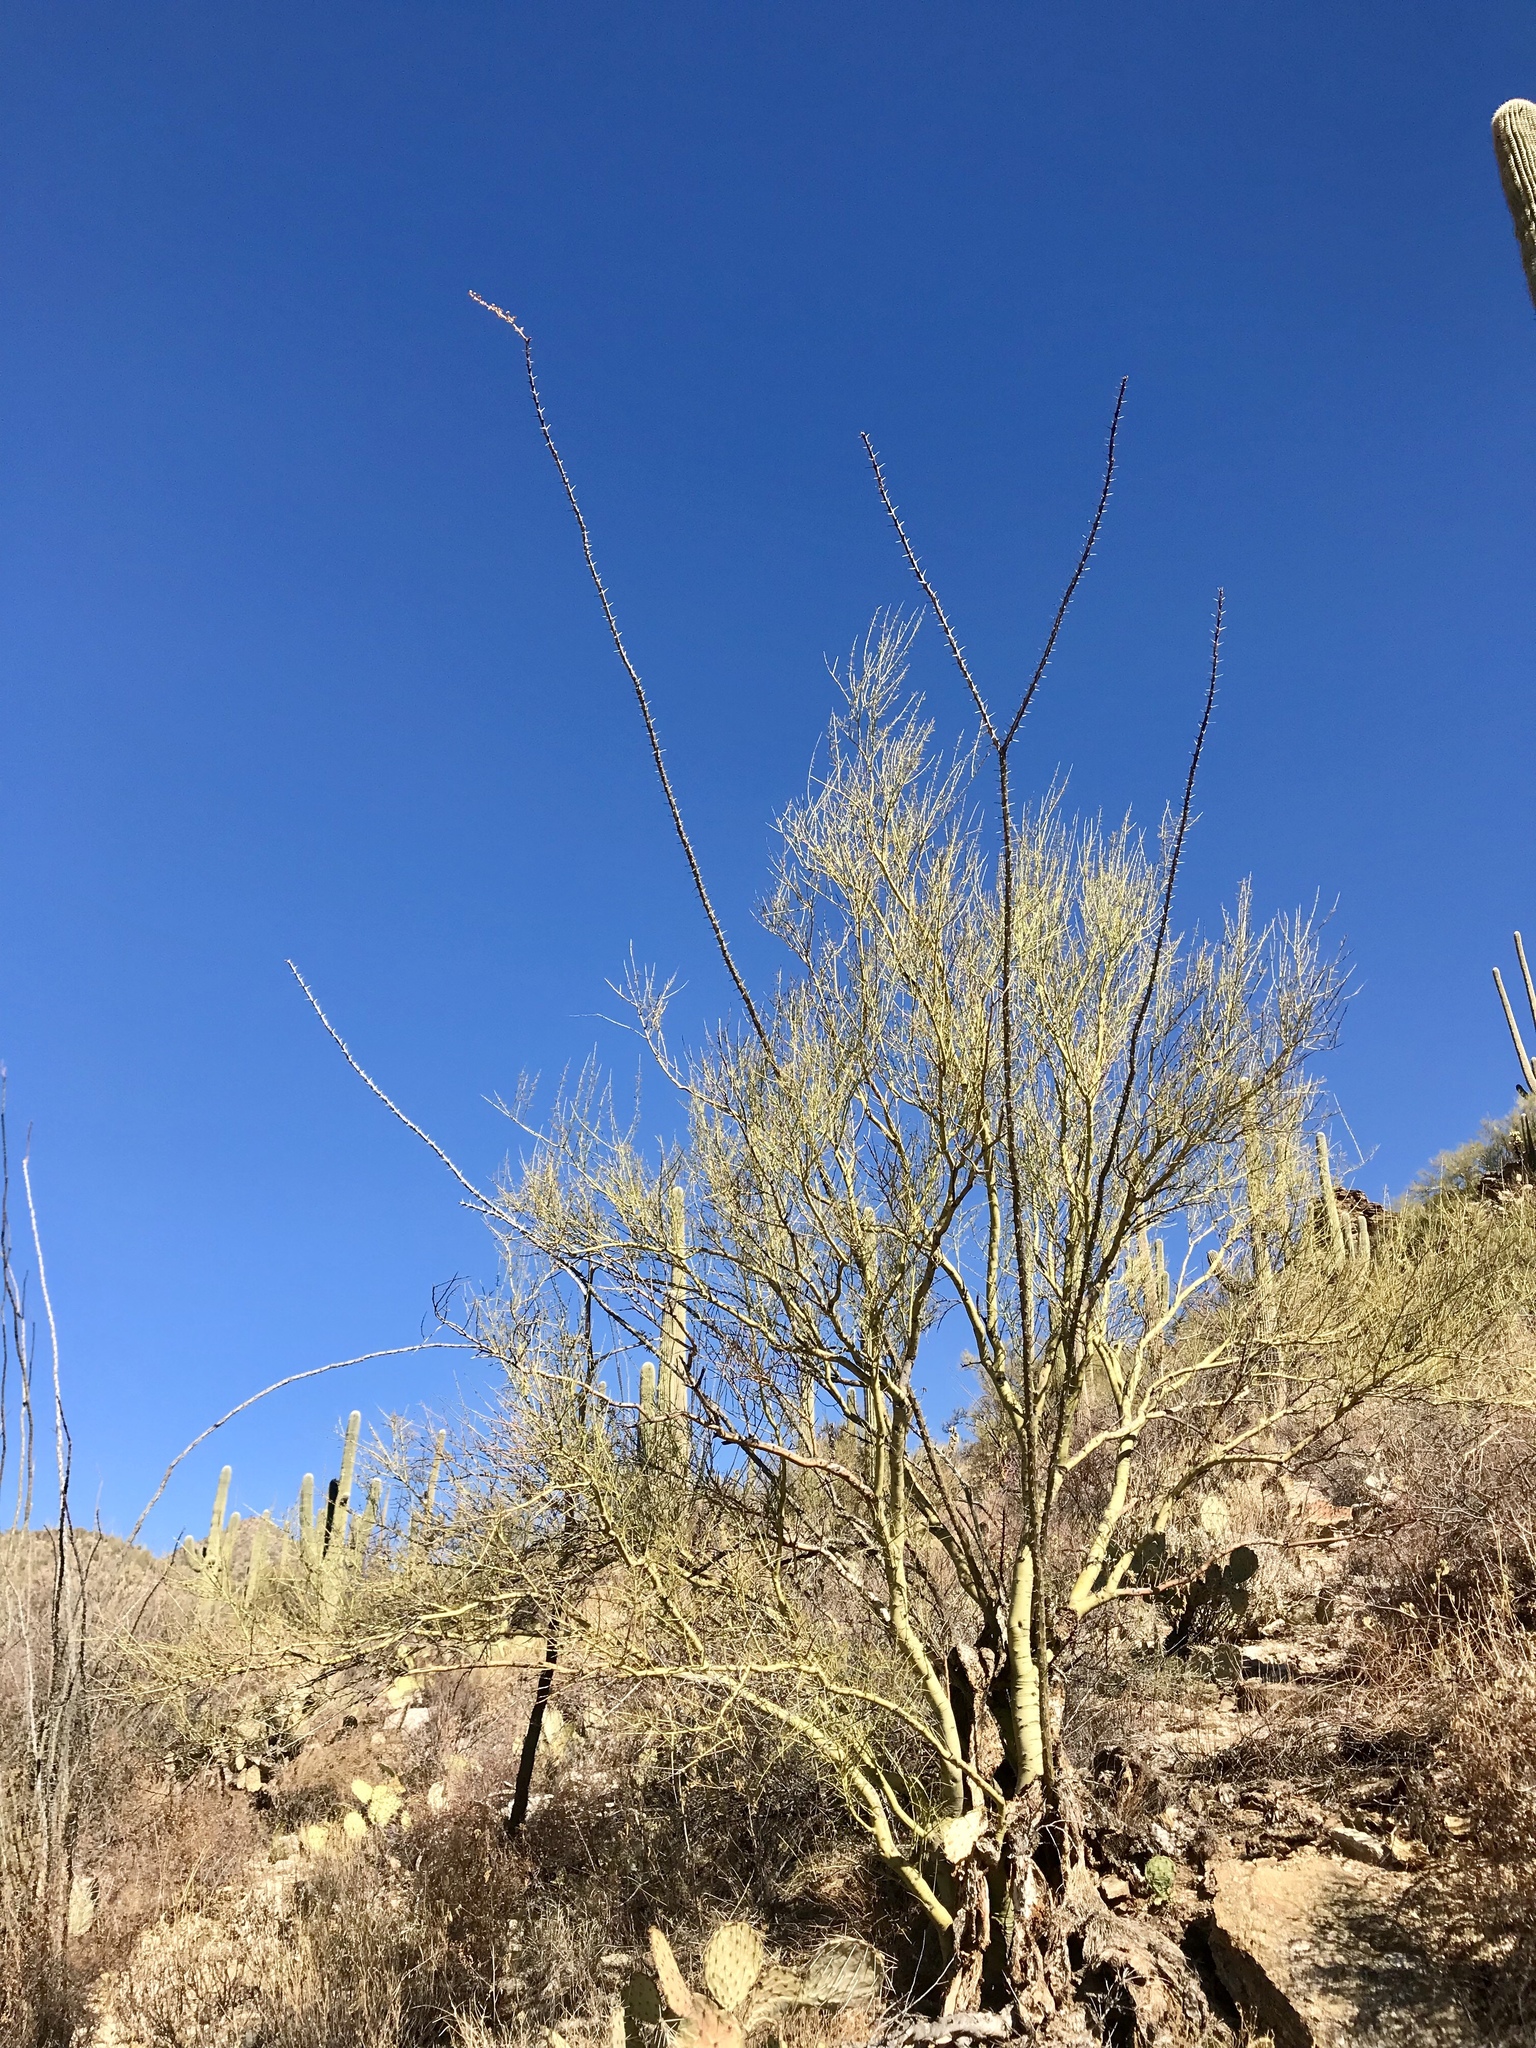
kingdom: Plantae
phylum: Tracheophyta
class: Magnoliopsida
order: Fabales
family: Fabaceae
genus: Parkinsonia
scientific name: Parkinsonia microphylla
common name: Yellow paloverde
